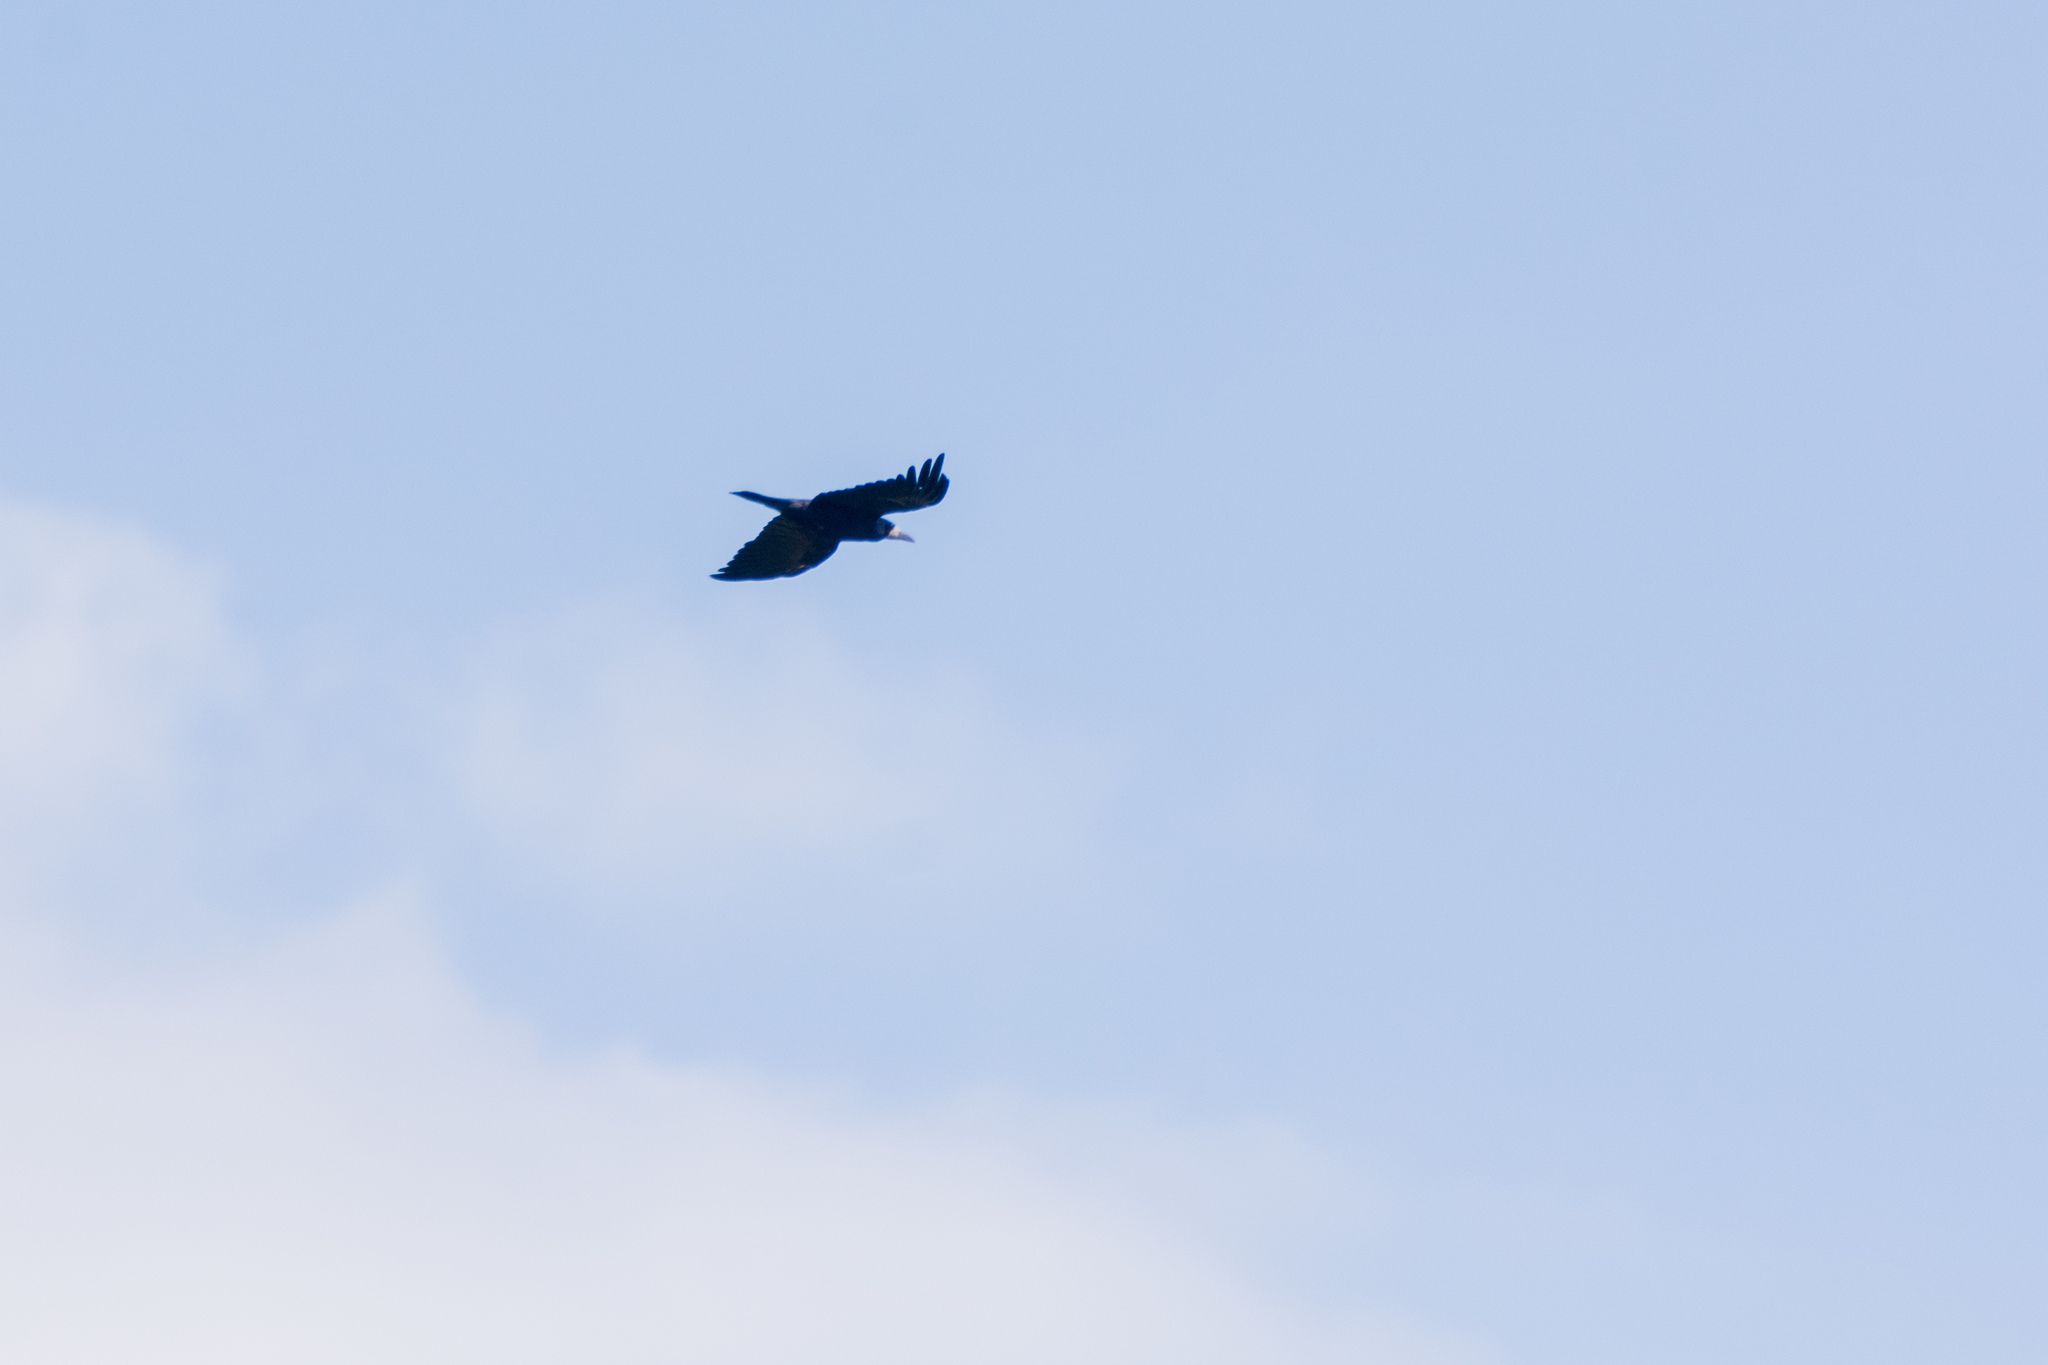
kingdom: Animalia
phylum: Chordata
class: Aves
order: Passeriformes
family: Corvidae
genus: Corvus
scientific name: Corvus frugilegus
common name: Rook
